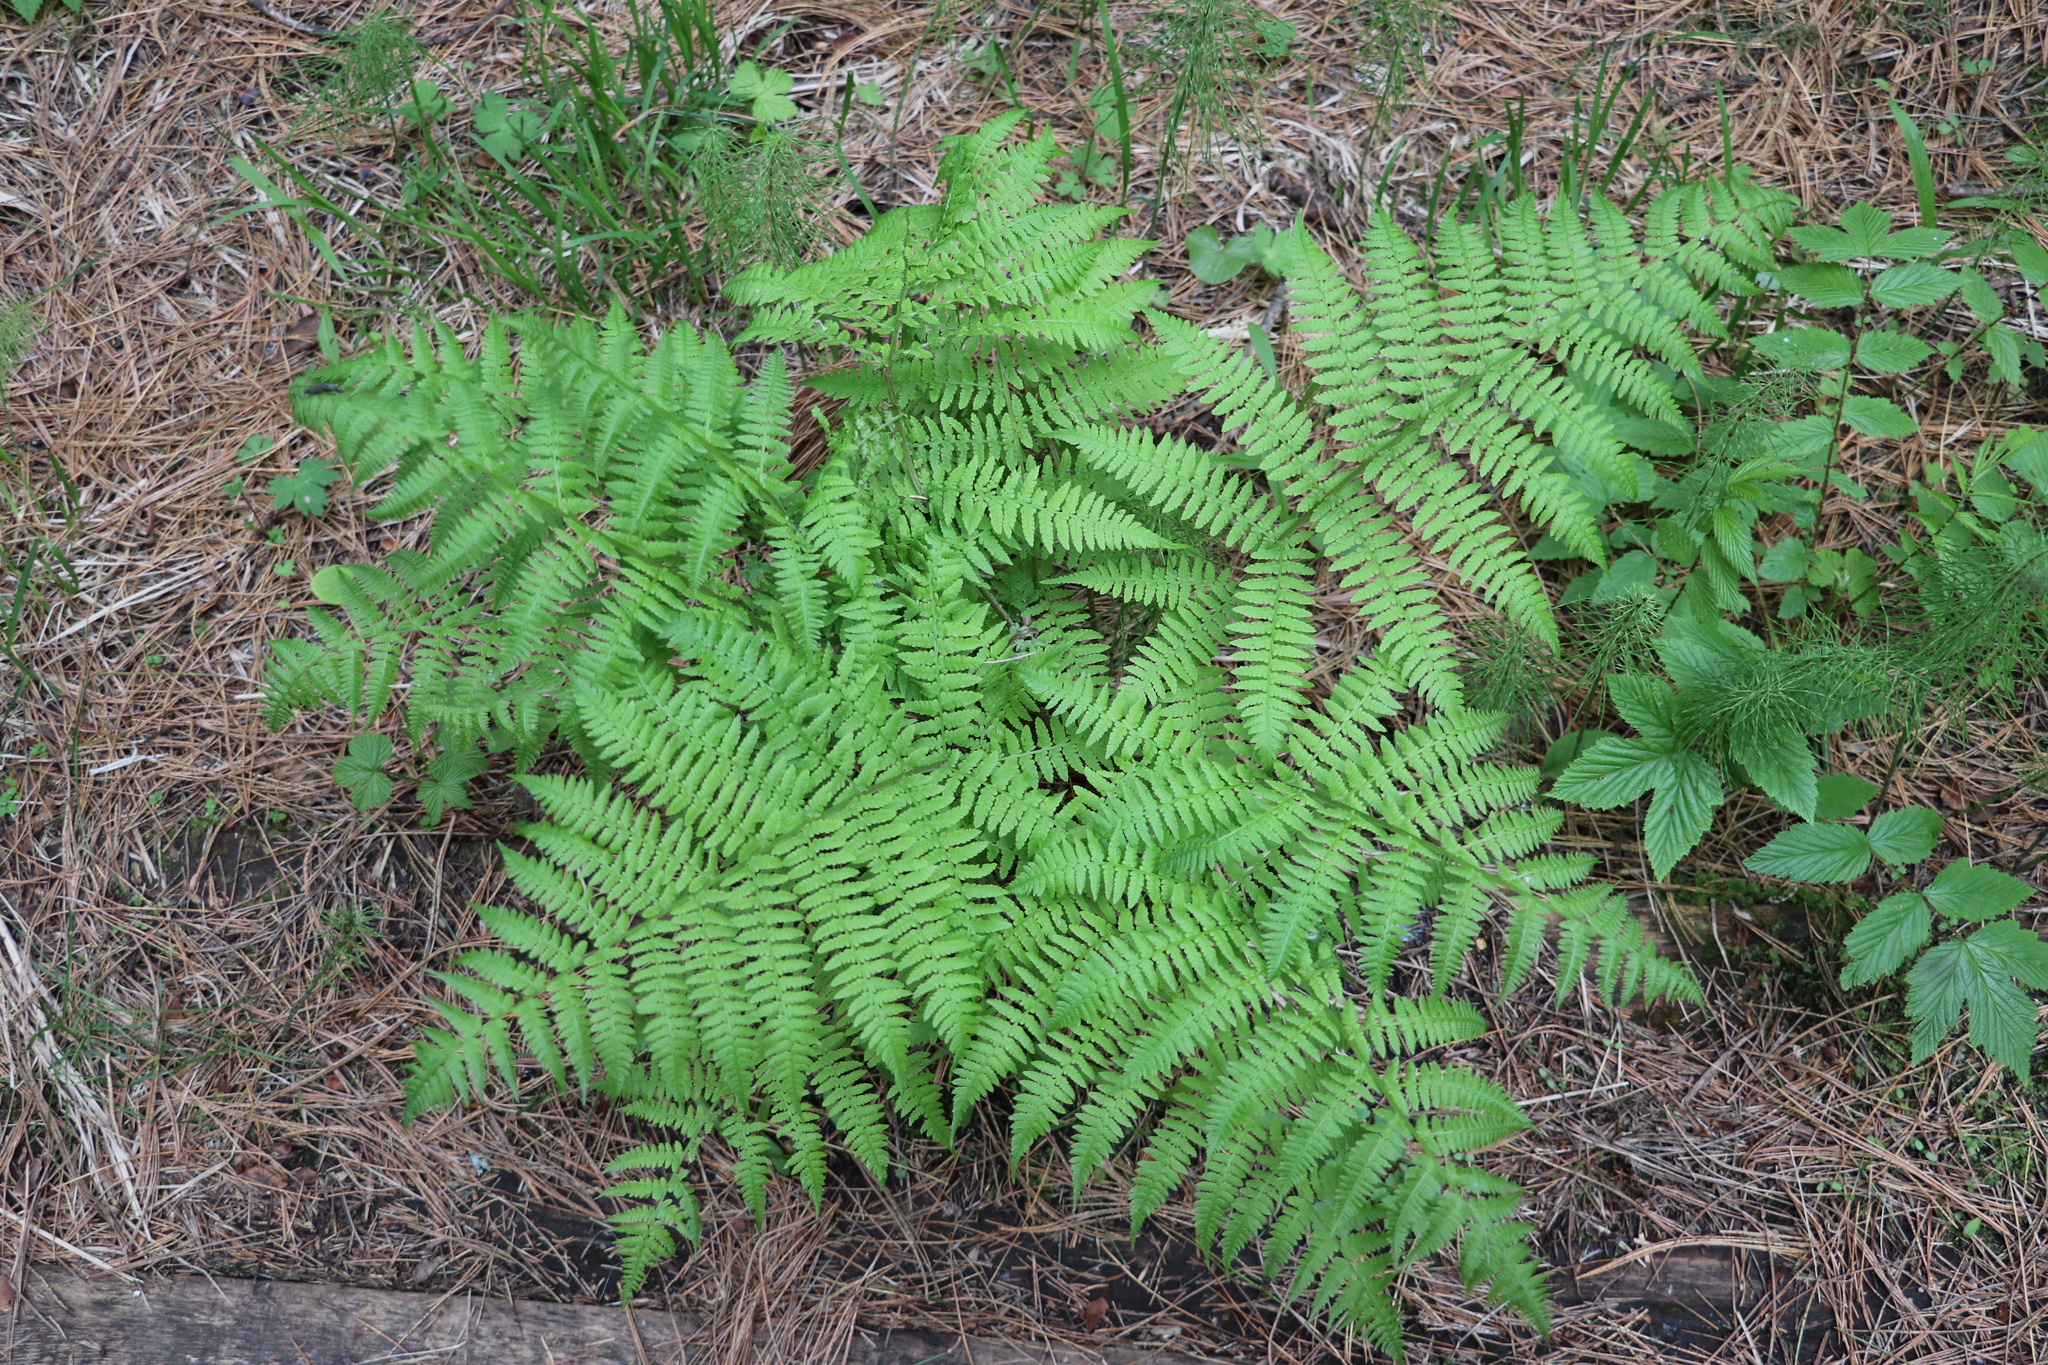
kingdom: Plantae
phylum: Tracheophyta
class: Polypodiopsida
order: Polypodiales
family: Athyriaceae
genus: Athyrium
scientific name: Athyrium filix-femina
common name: Lady fern
